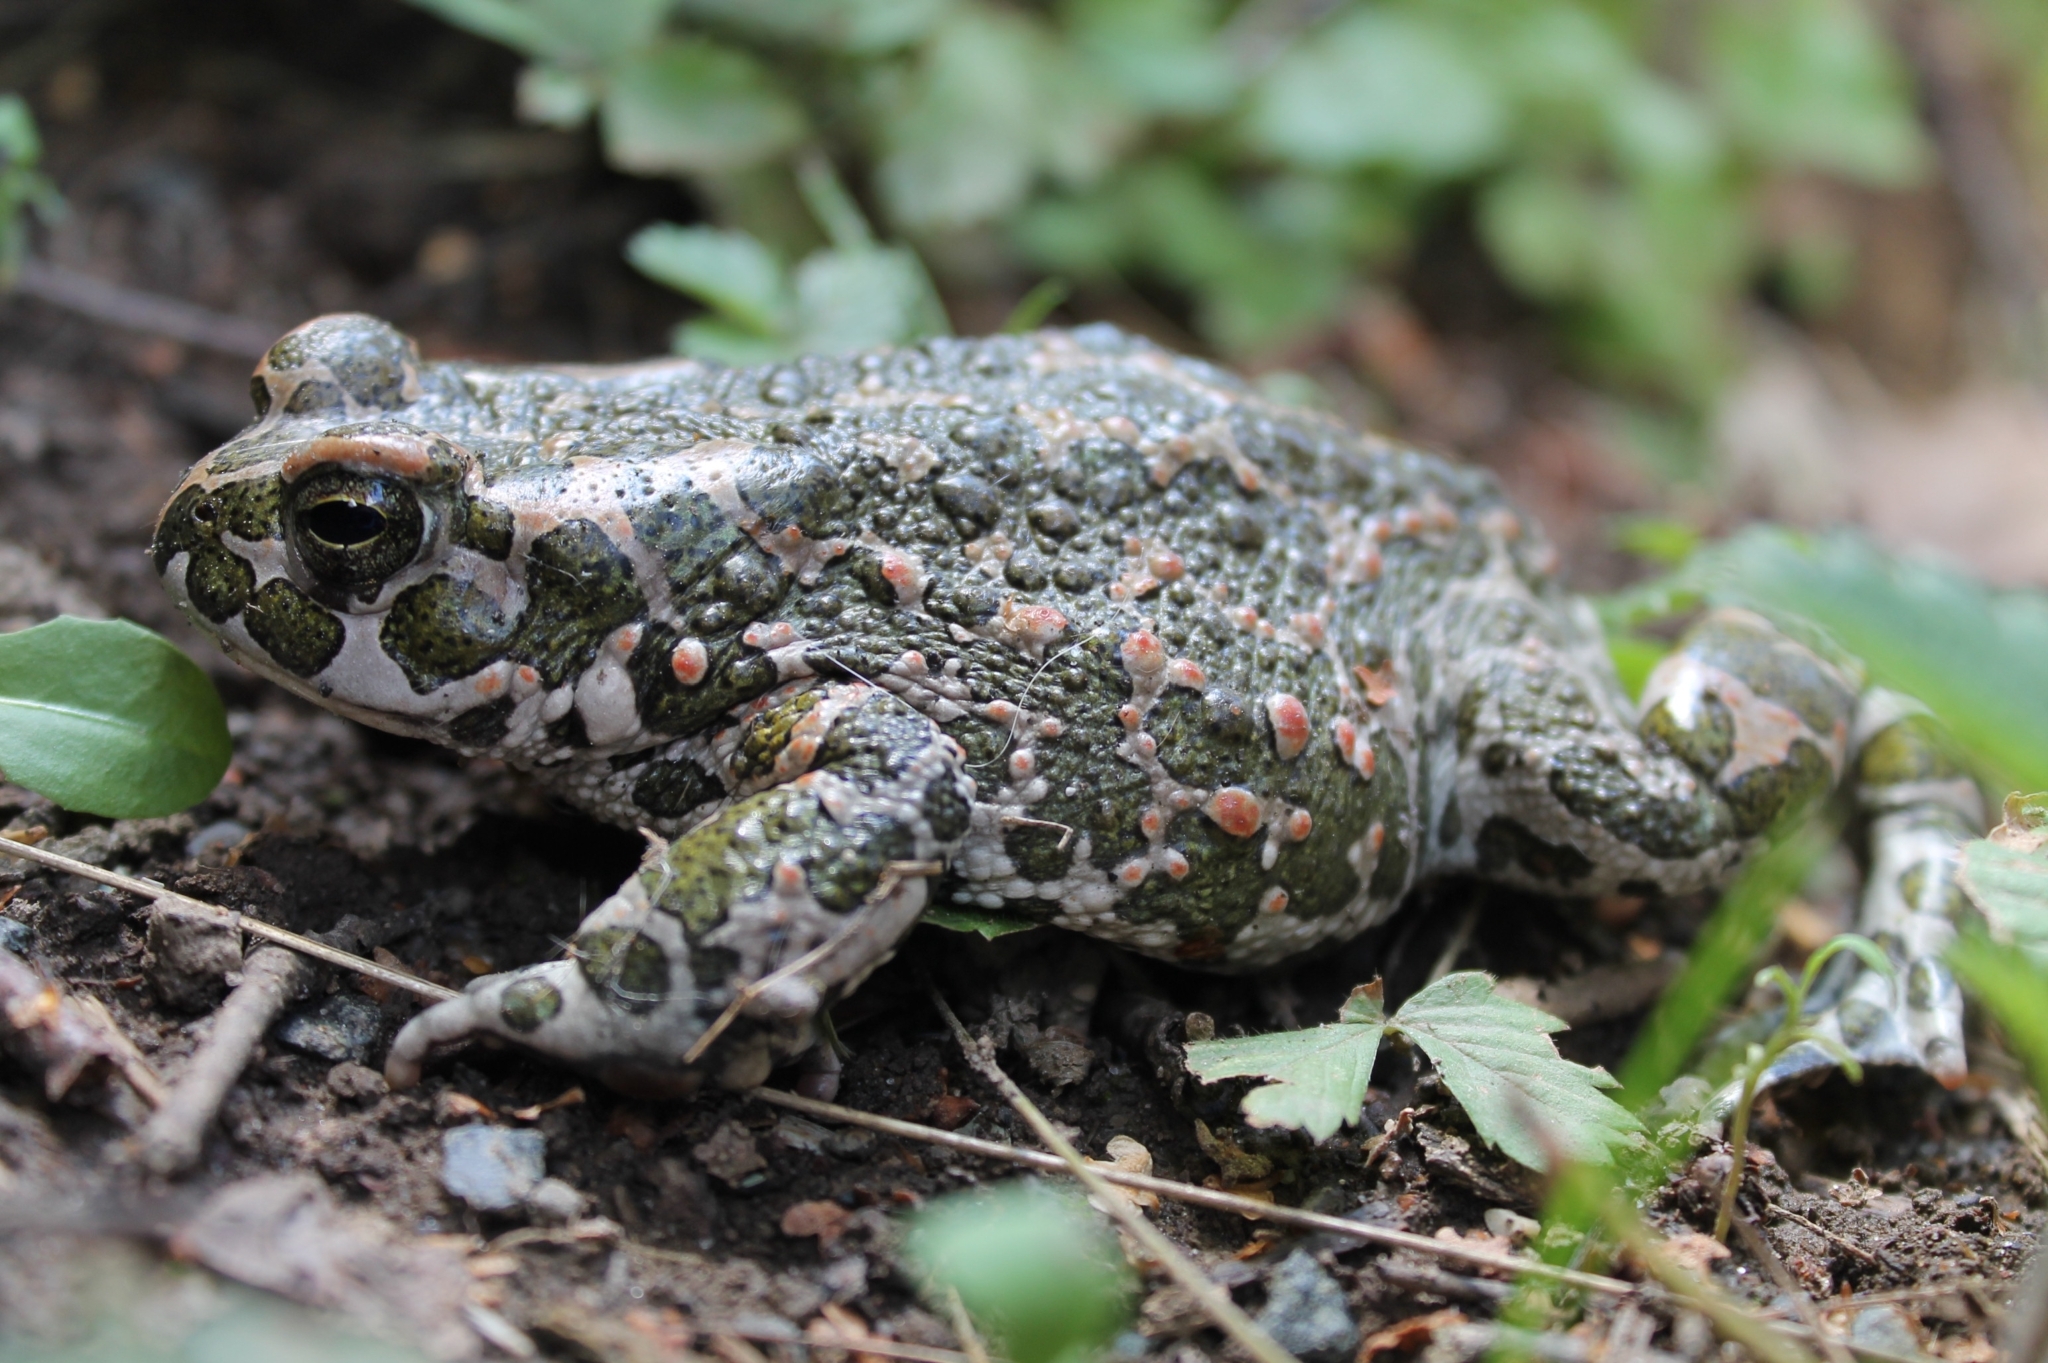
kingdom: Animalia
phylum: Chordata
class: Amphibia
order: Anura
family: Bufonidae
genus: Bufotes
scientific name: Bufotes viridis
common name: European green toad
